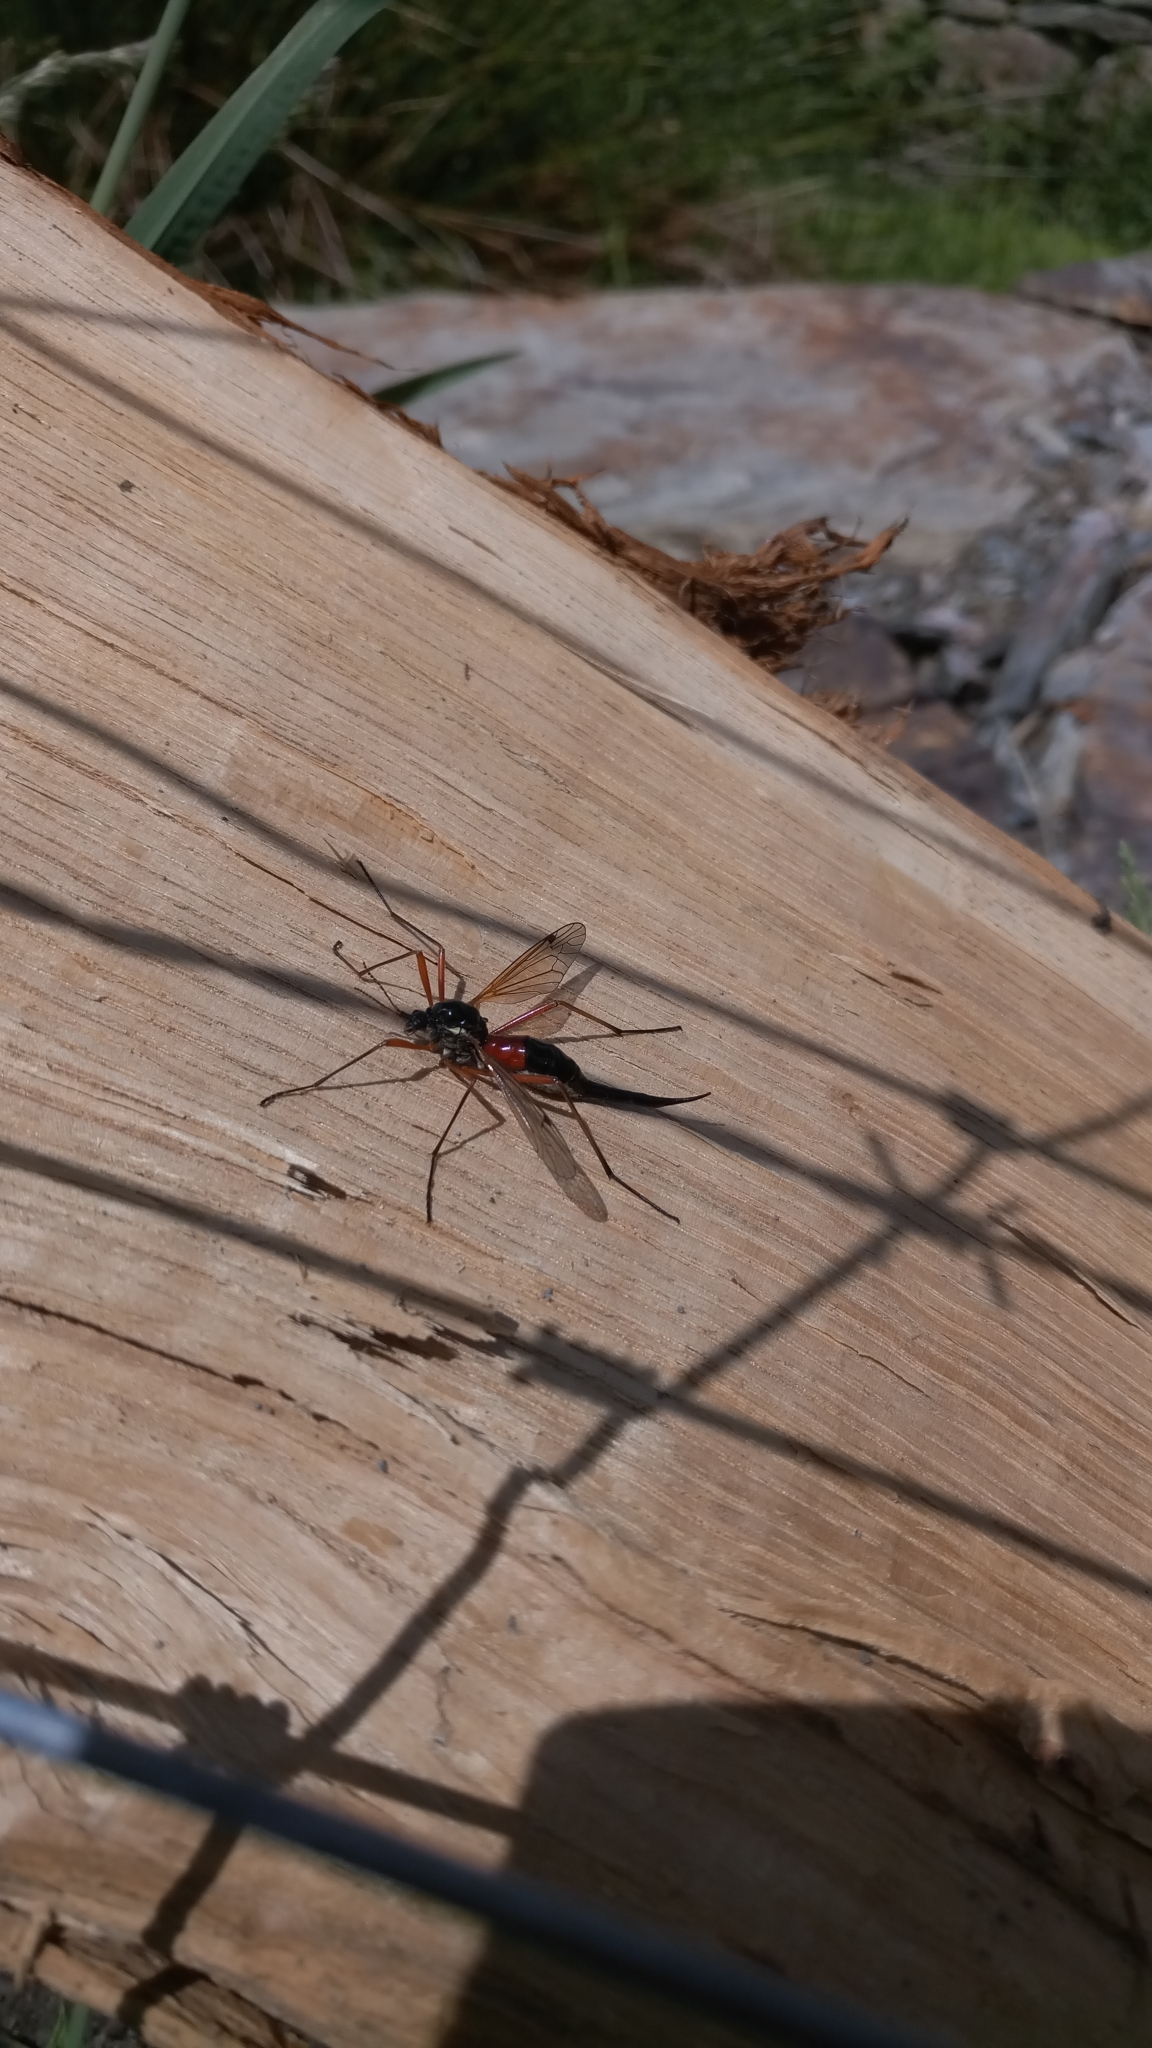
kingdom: Animalia
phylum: Arthropoda
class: Insecta
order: Diptera
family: Tipulidae
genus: Tanyptera
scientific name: Tanyptera atrata
